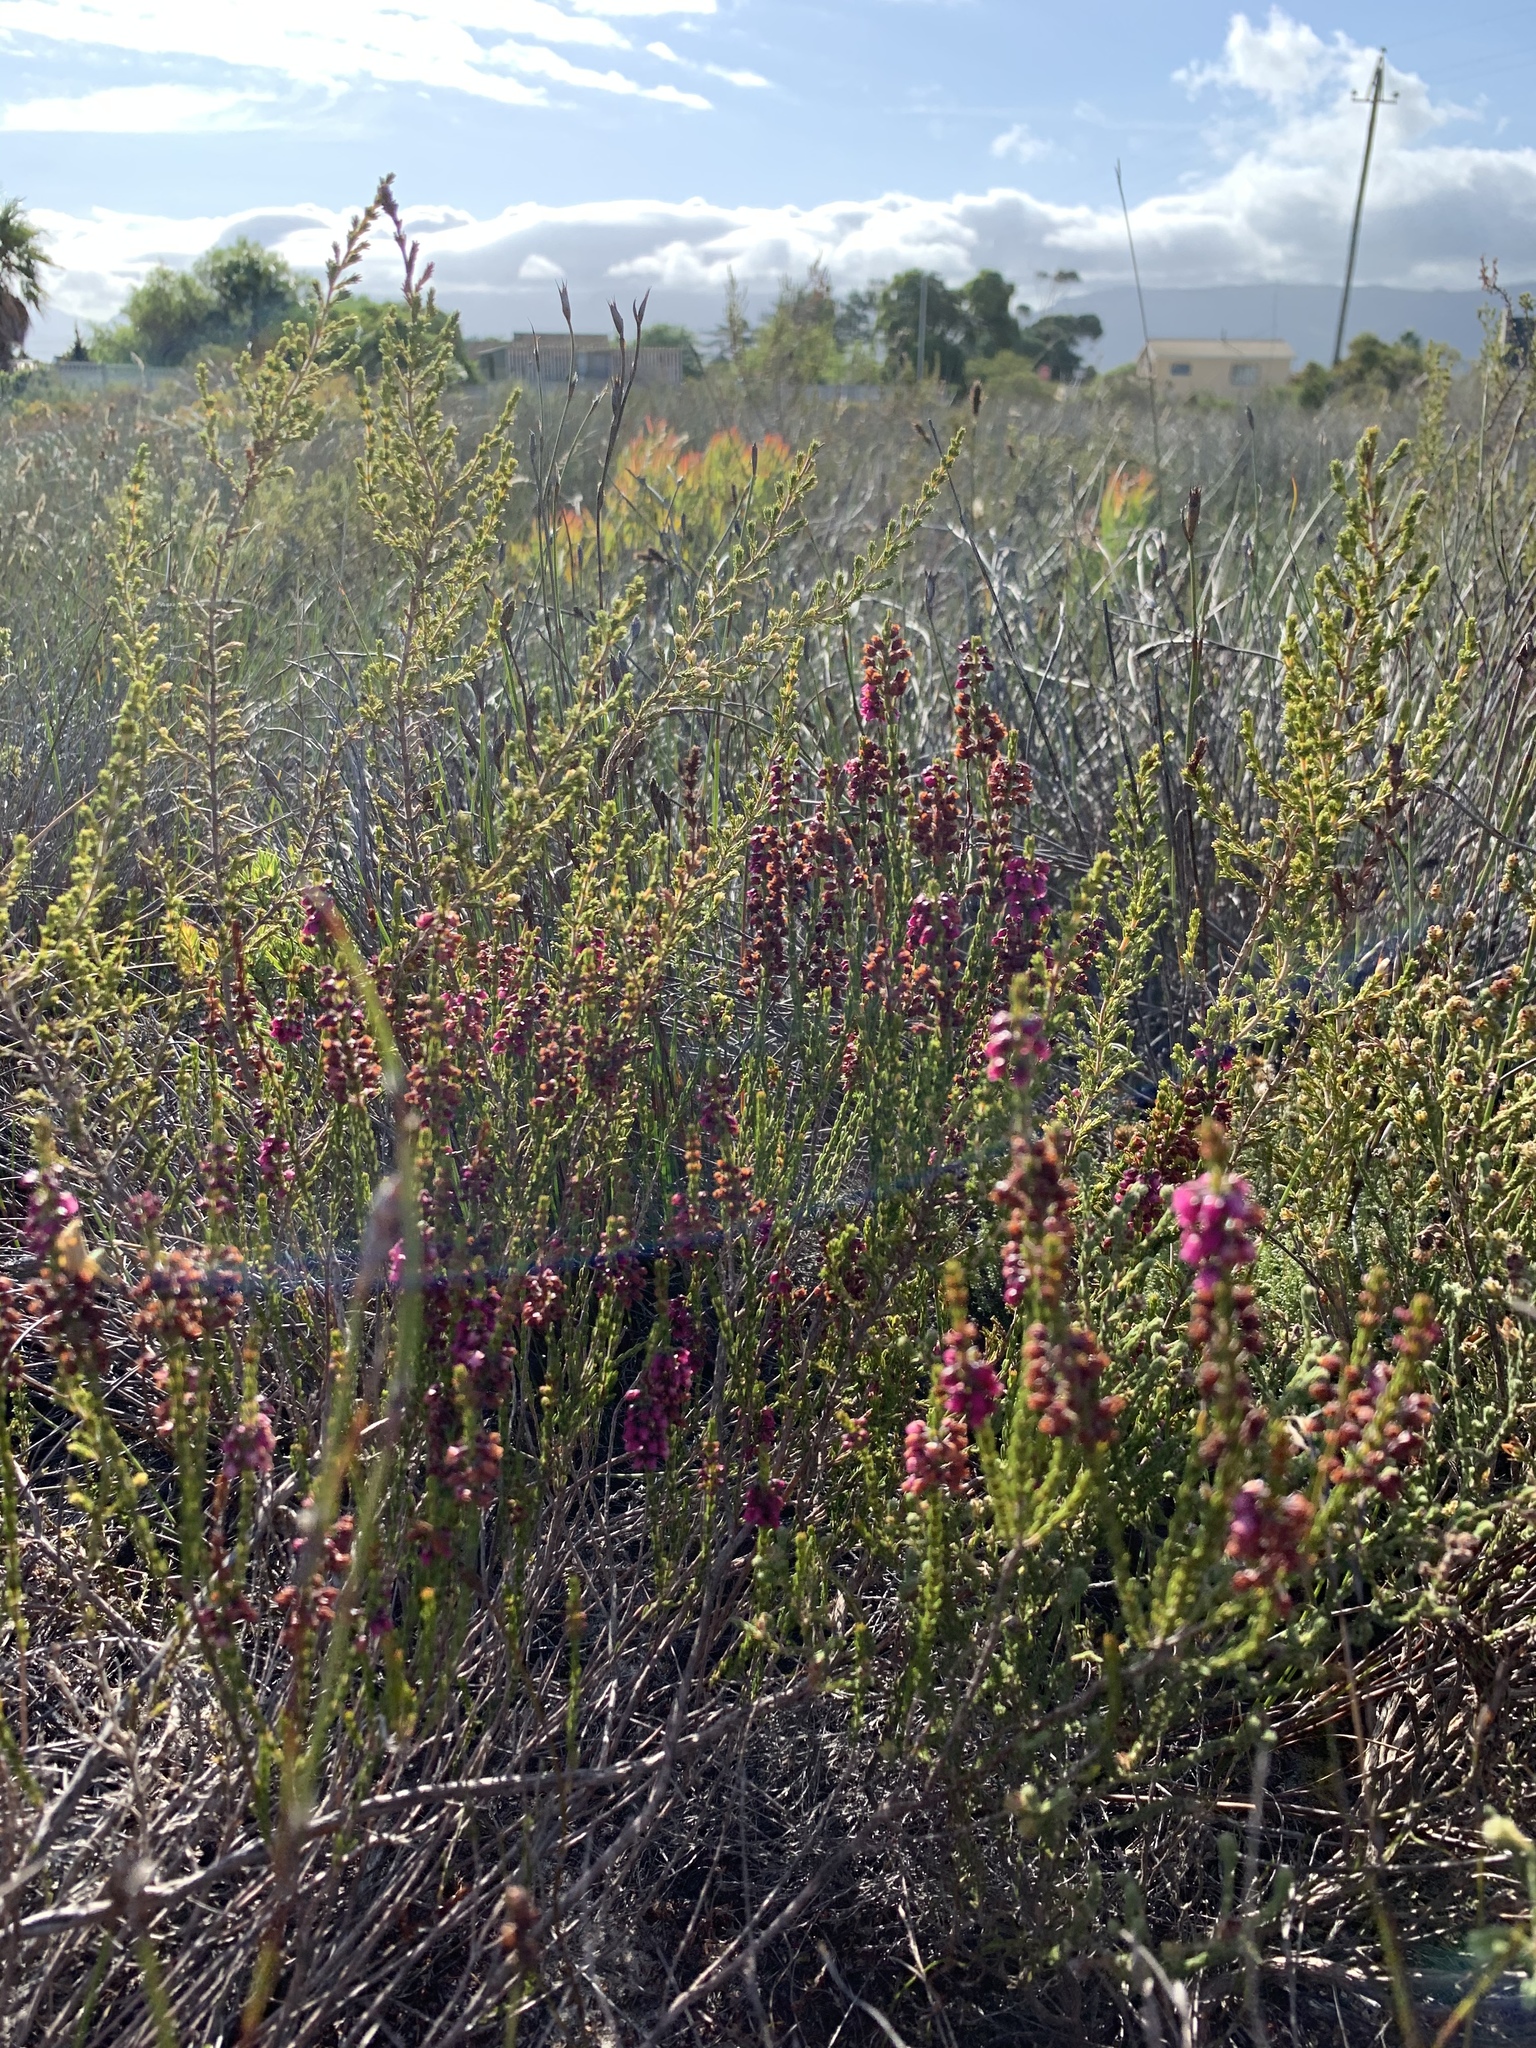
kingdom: Plantae
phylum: Tracheophyta
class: Magnoliopsida
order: Ericales
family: Ericaceae
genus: Erica
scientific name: Erica pulchella
